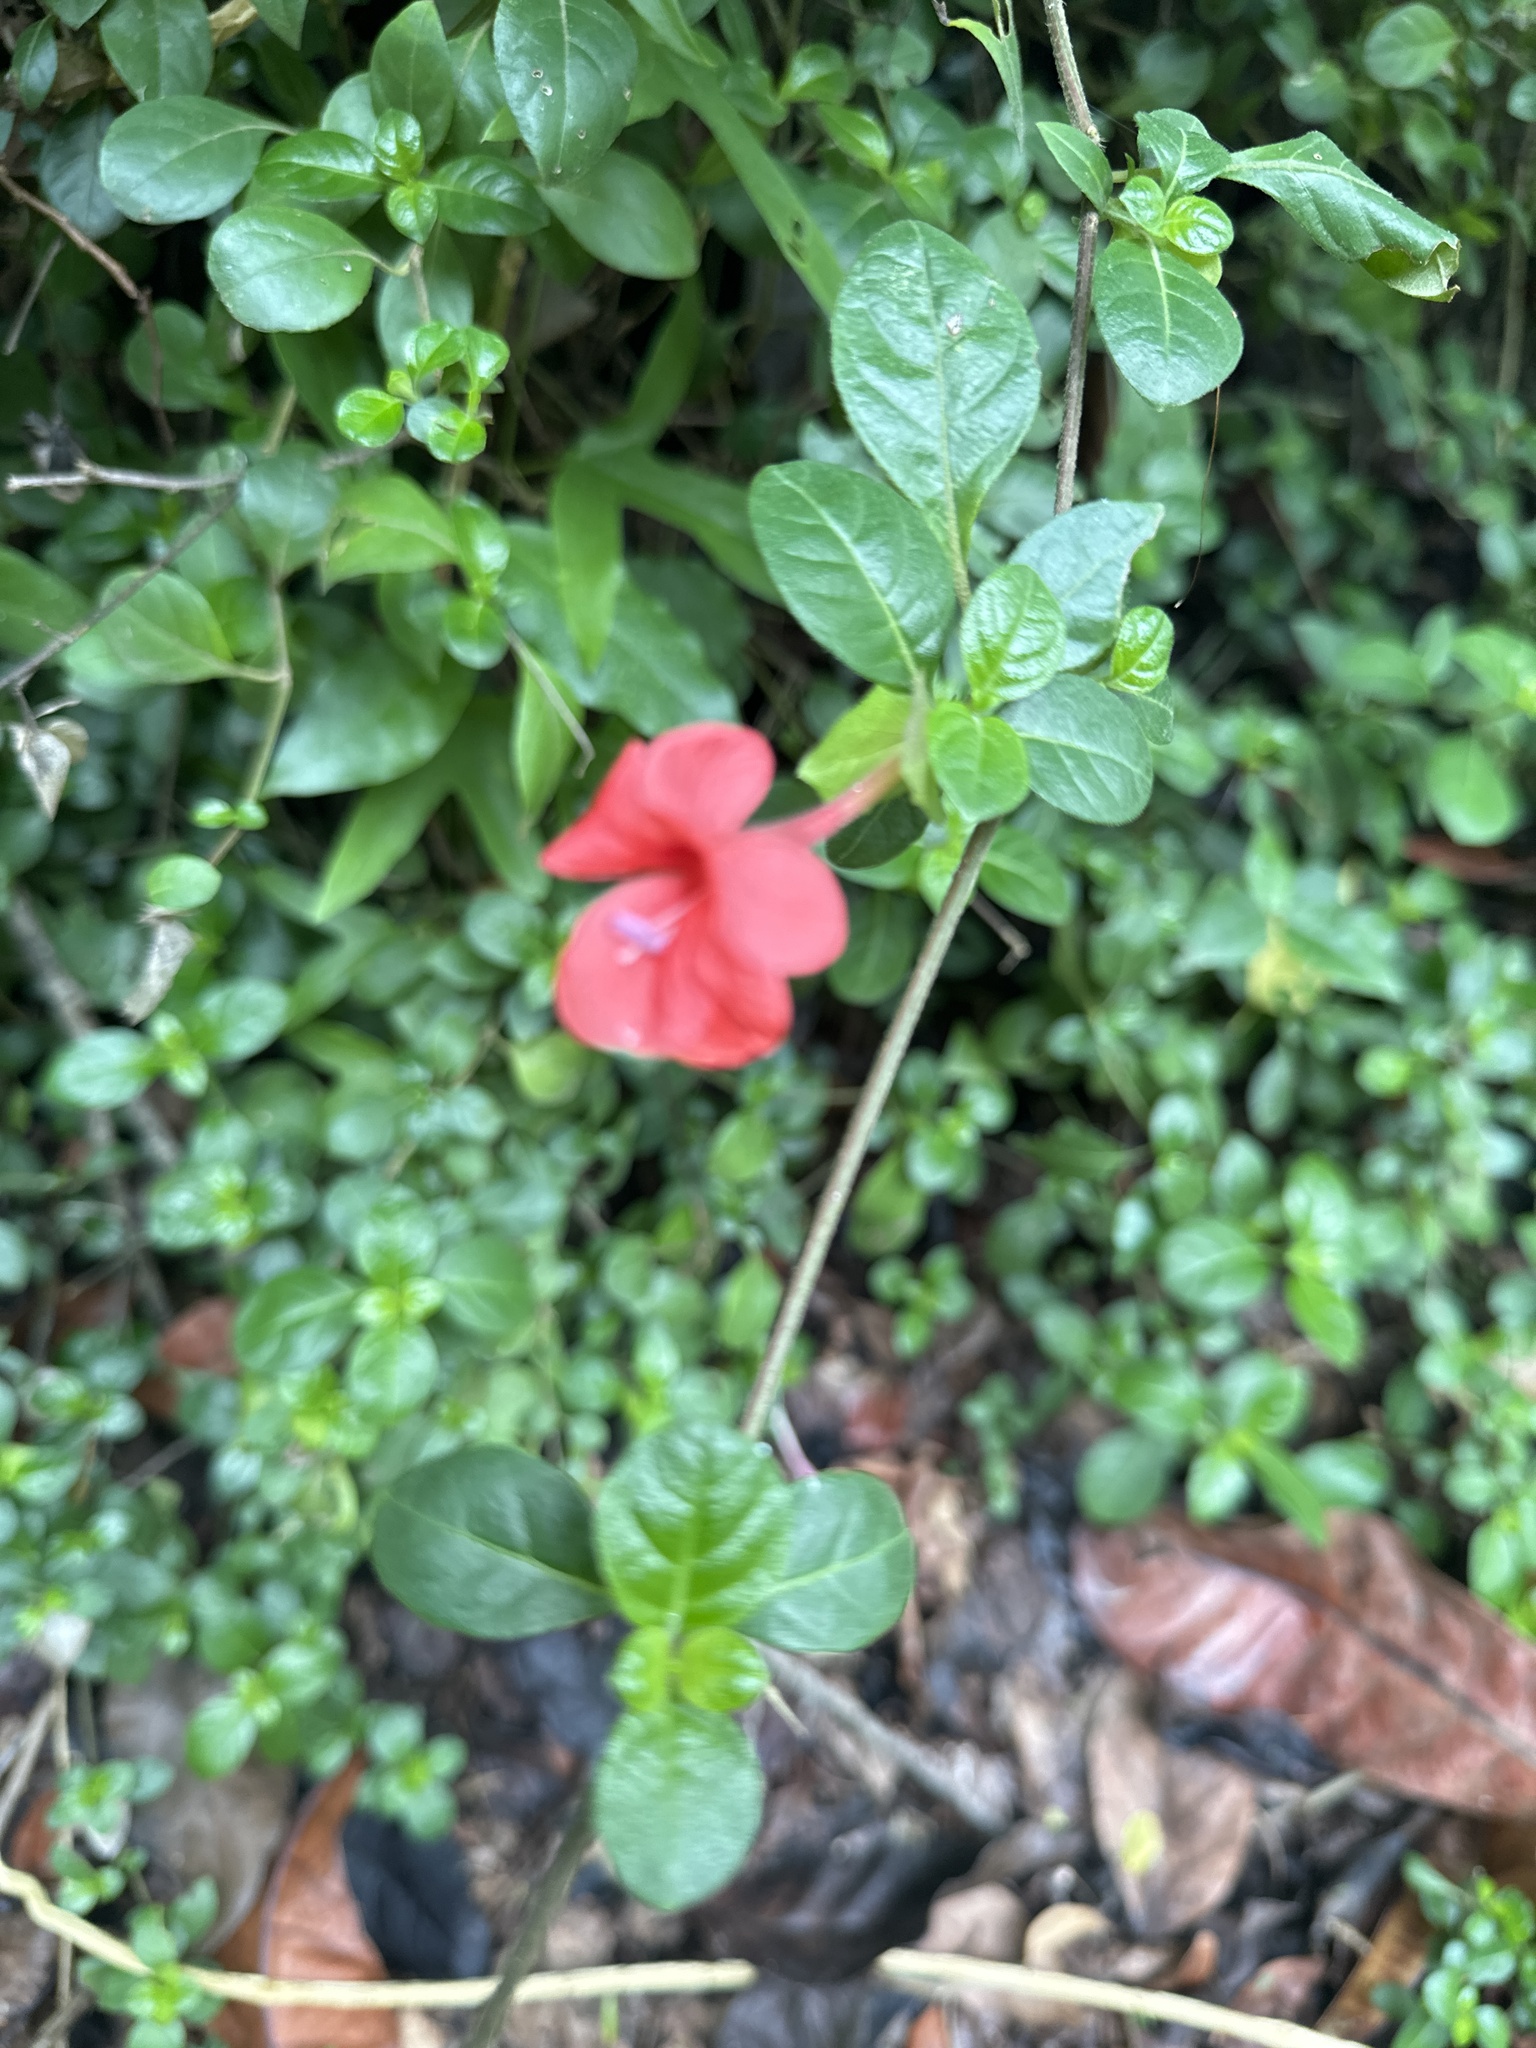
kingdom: Plantae
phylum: Tracheophyta
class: Magnoliopsida
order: Lamiales
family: Acanthaceae
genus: Barleria
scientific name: Barleria repens
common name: Pink-ruellia
